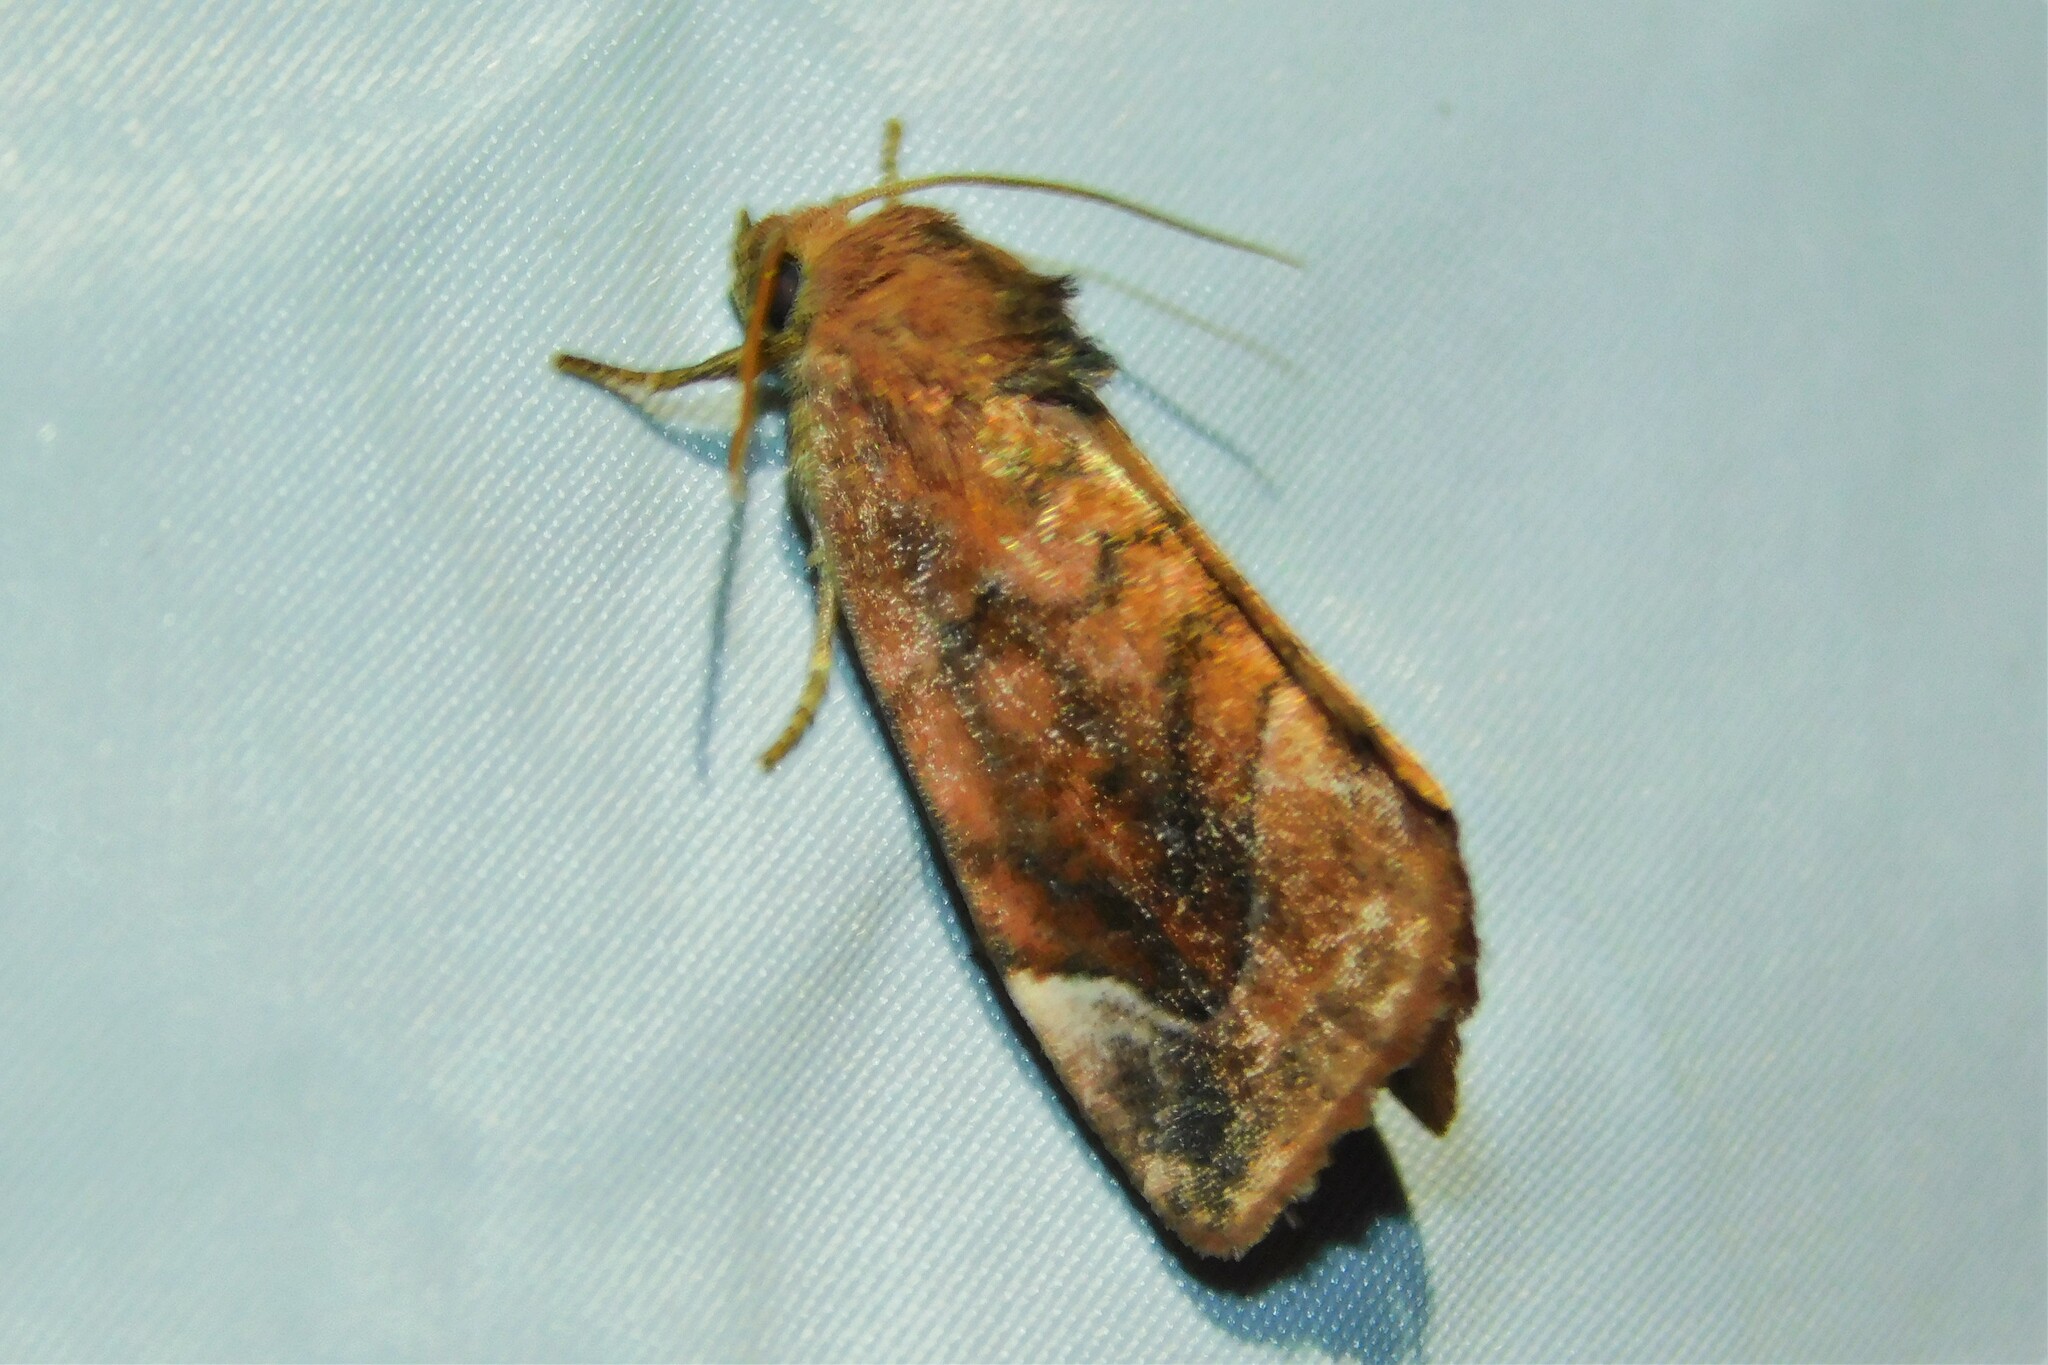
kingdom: Animalia
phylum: Arthropoda
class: Insecta
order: Lepidoptera
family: Noctuidae
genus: Cosmia
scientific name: Cosmia pyralina
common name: Lunar-spotted pinion
